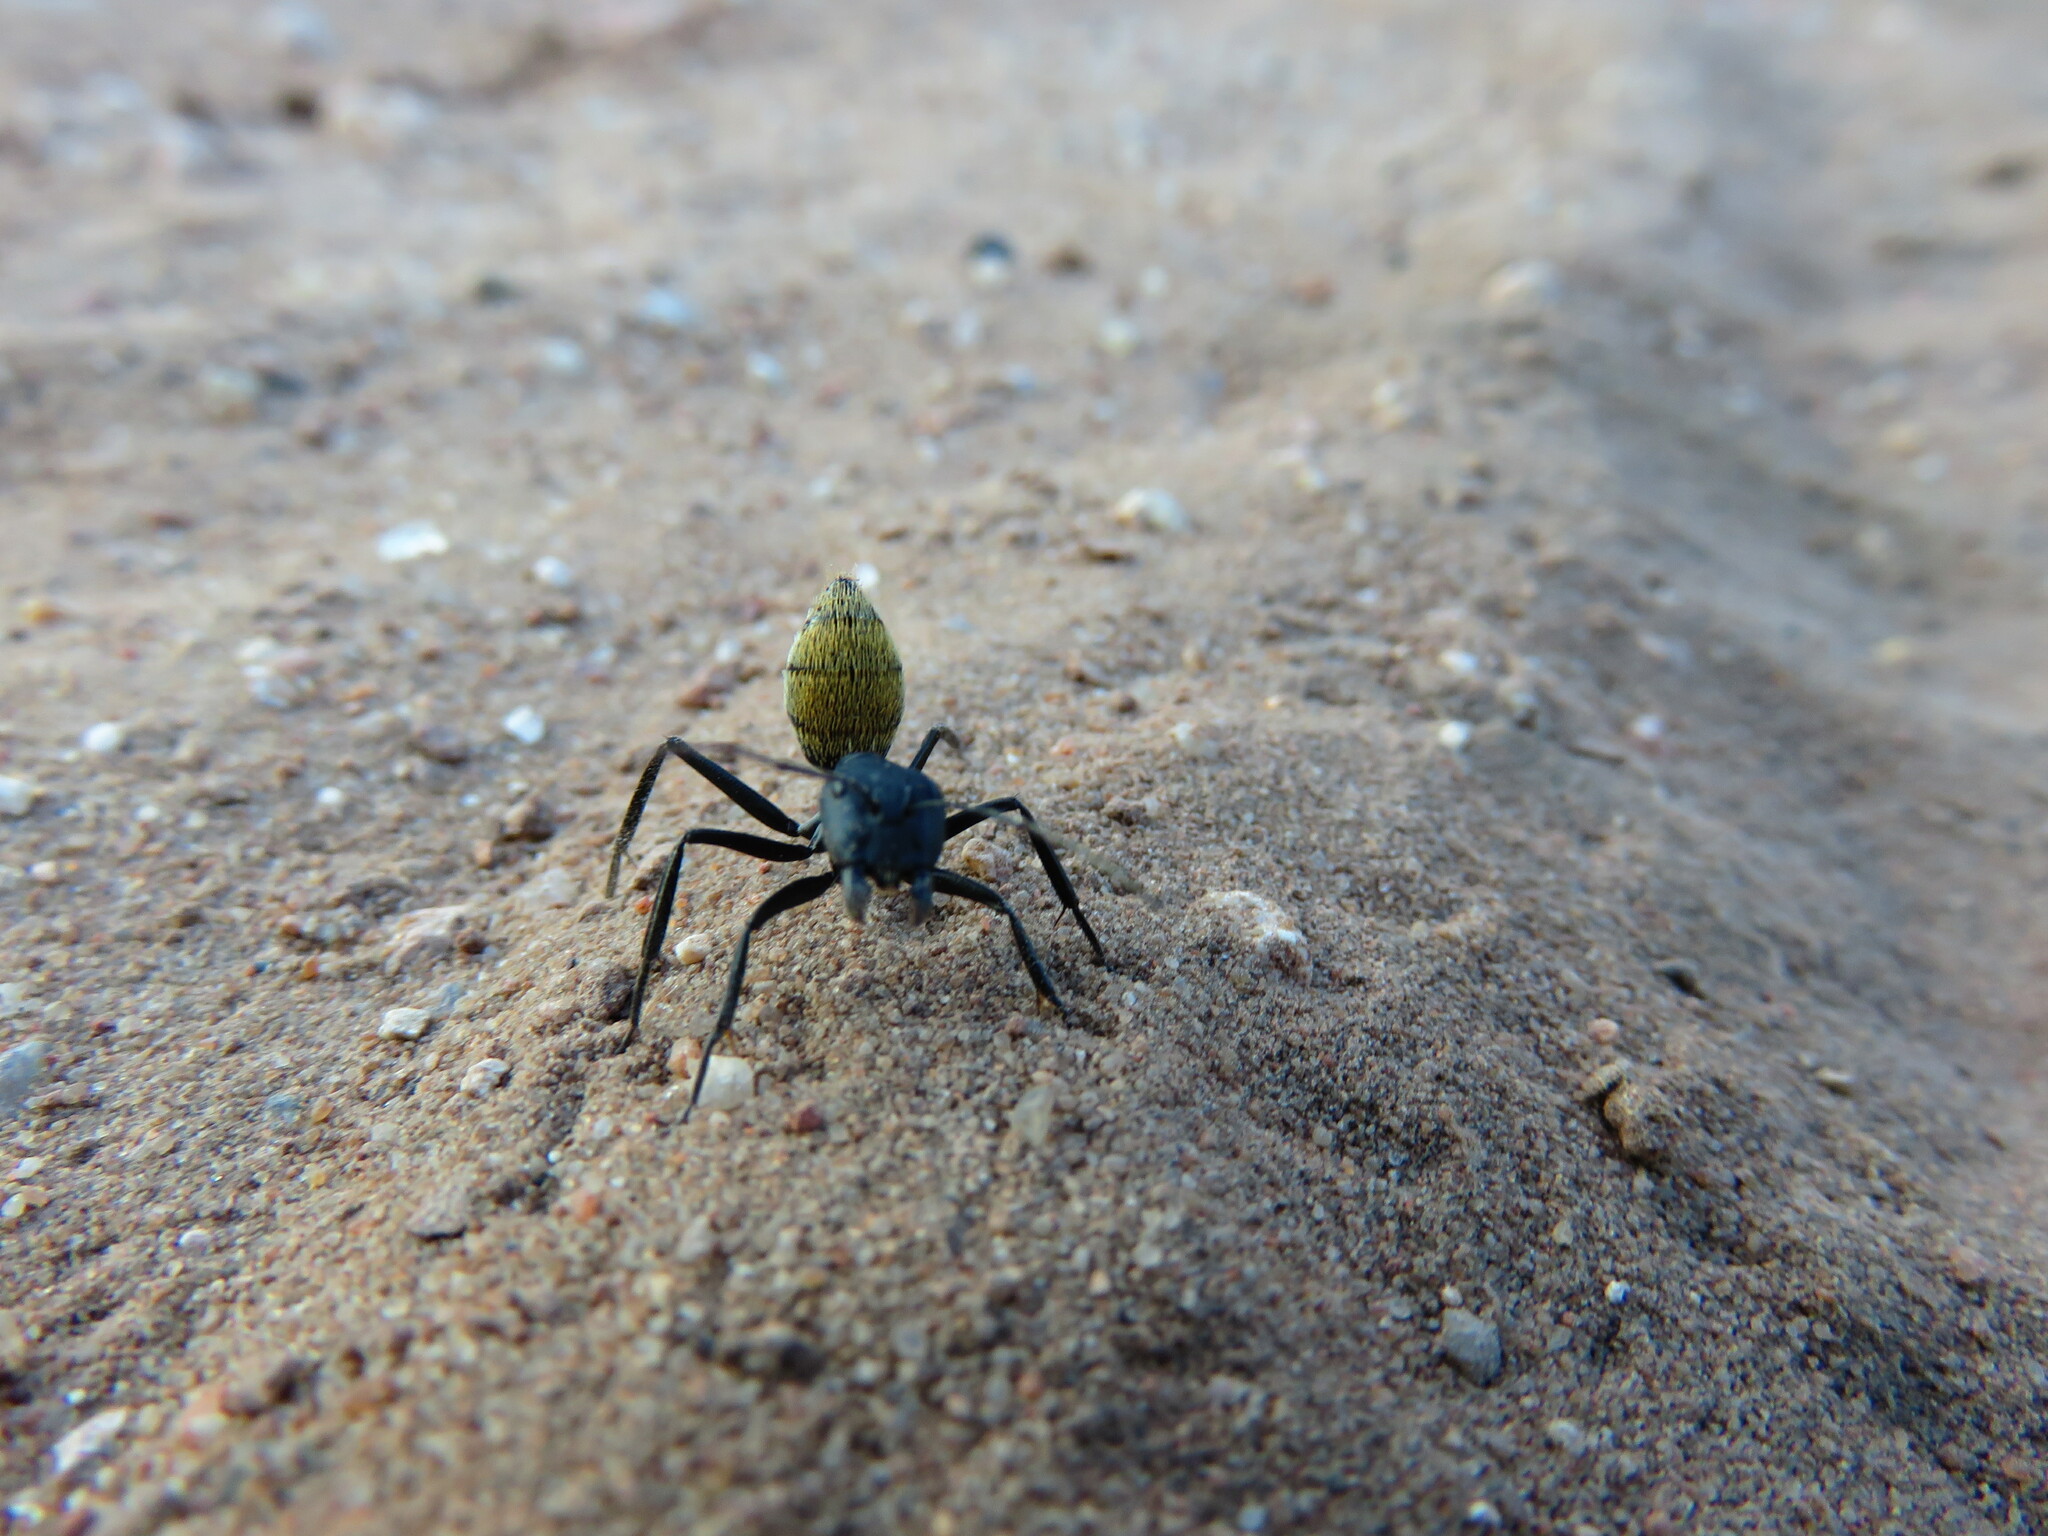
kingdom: Animalia
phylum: Arthropoda
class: Insecta
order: Hymenoptera
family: Formicidae
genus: Camponotus
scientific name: Camponotus fulvopilosus
